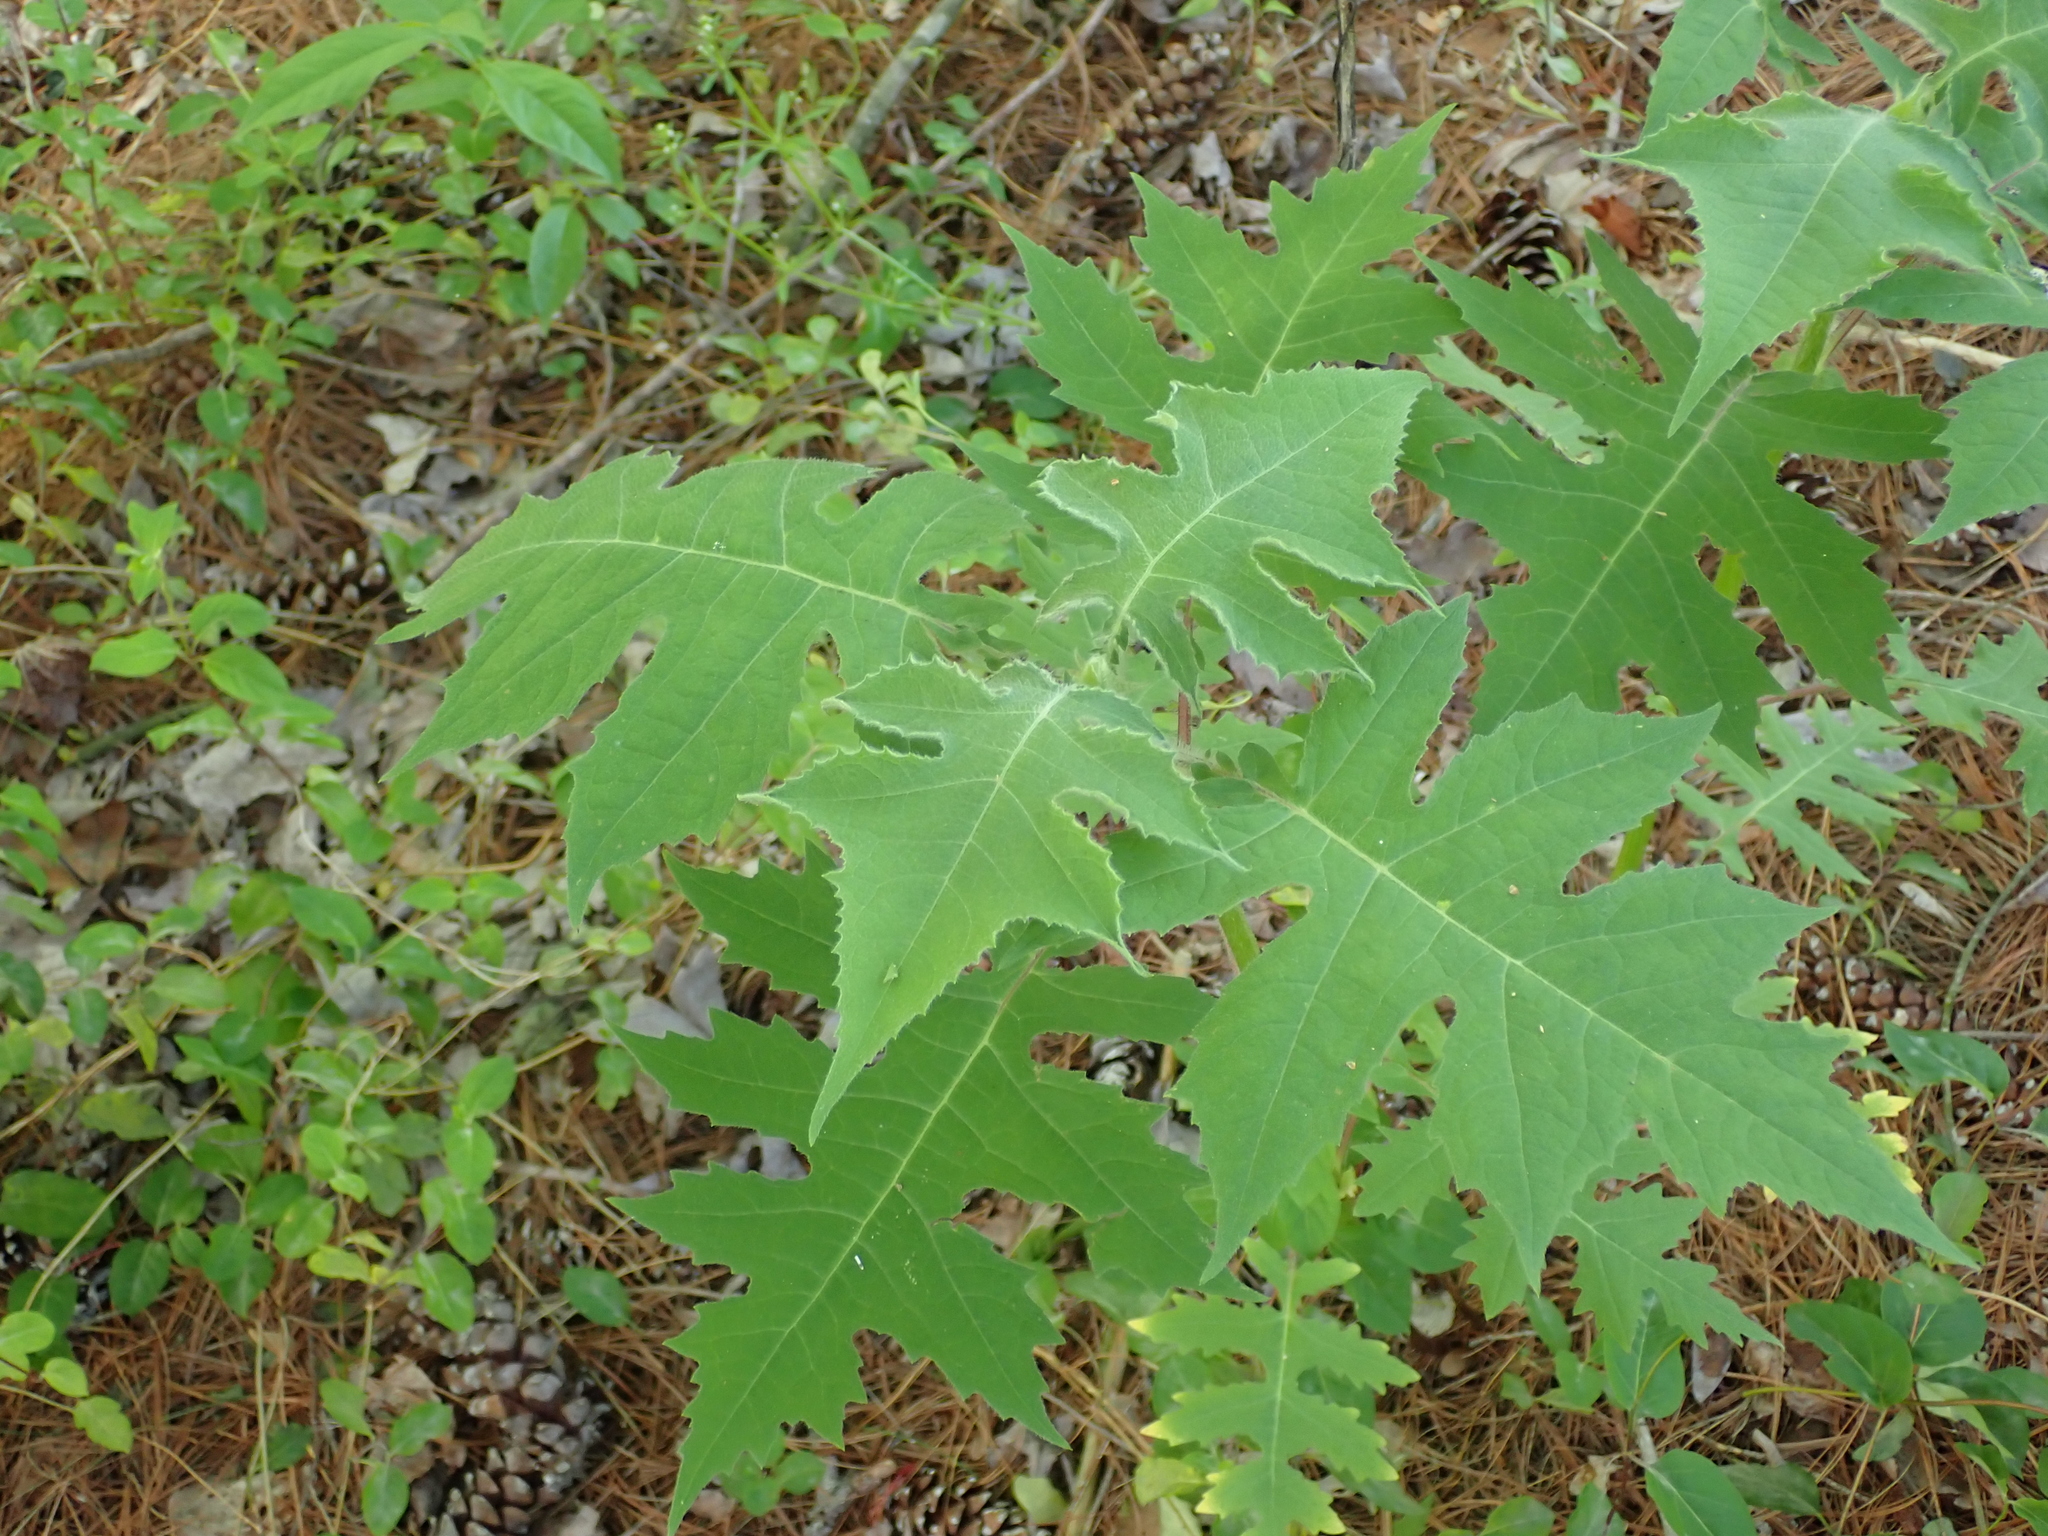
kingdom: Plantae
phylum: Tracheophyta
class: Magnoliopsida
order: Asterales
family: Asteraceae
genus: Polymnia
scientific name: Polymnia canadensis
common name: Pale-flowered leafcup
